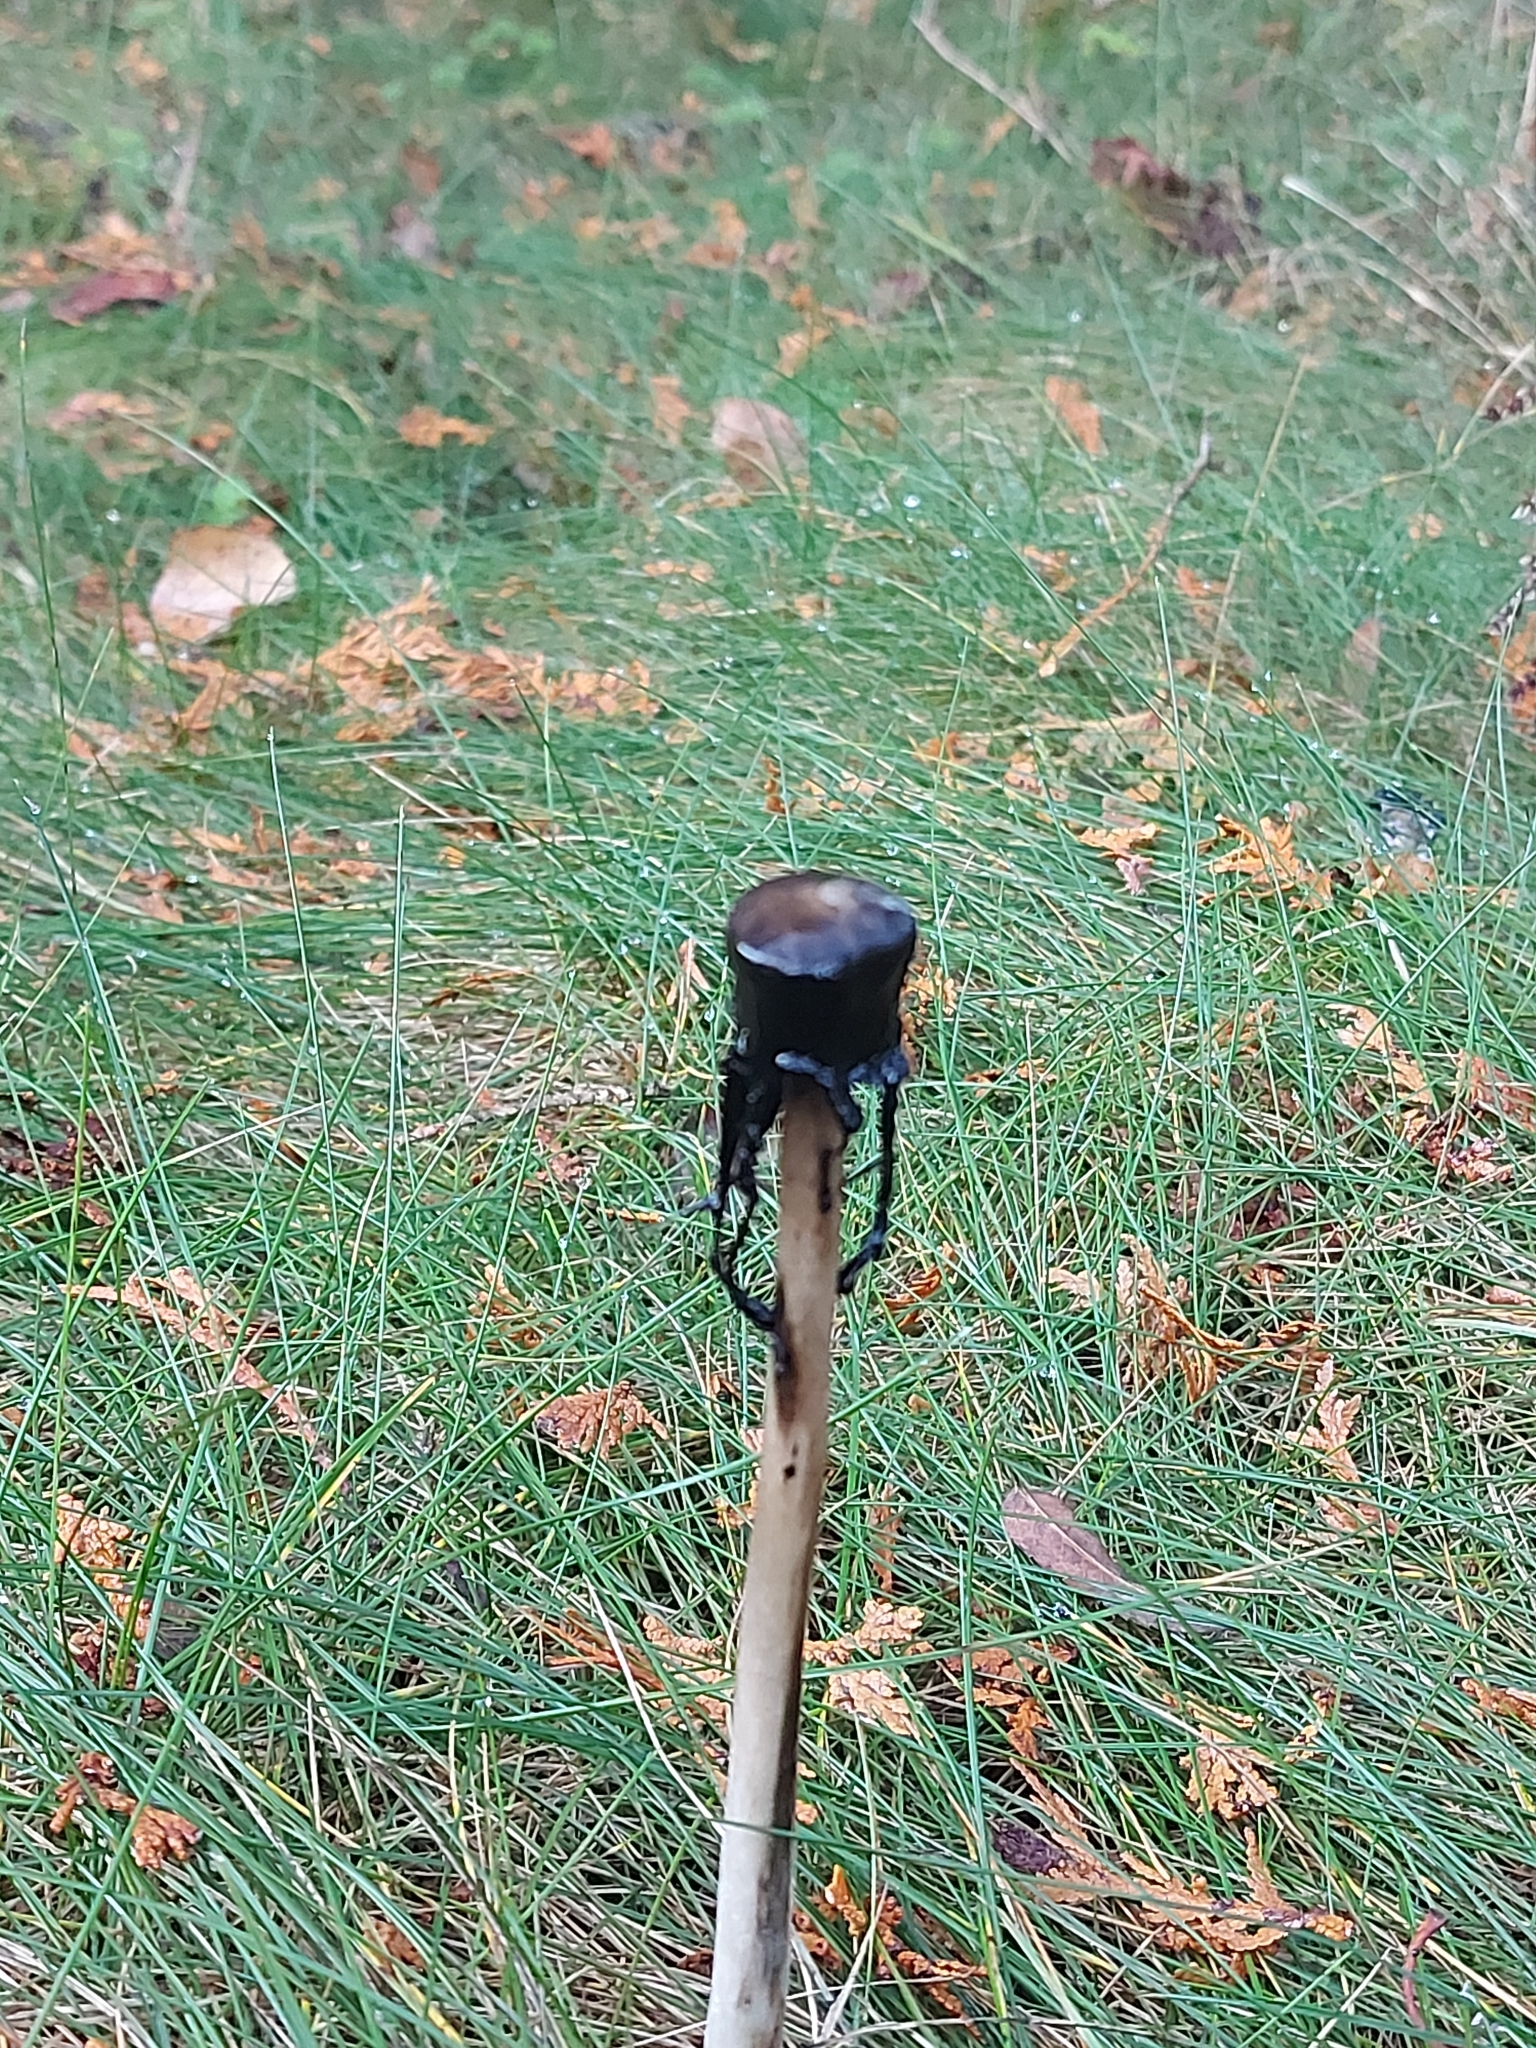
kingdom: Fungi
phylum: Basidiomycota
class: Agaricomycetes
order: Agaricales
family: Agaricaceae
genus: Coprinus
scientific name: Coprinus comatus
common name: Lawyer's wig
